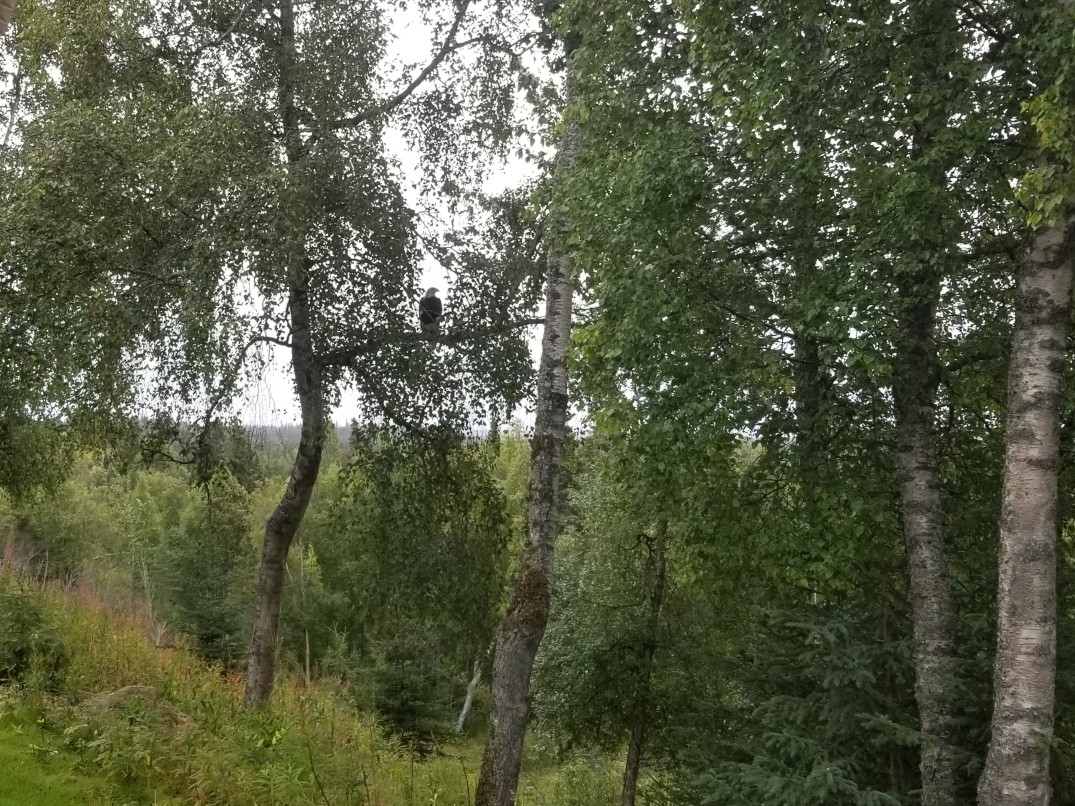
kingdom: Animalia
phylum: Chordata
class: Aves
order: Accipitriformes
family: Accipitridae
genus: Haliaeetus
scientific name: Haliaeetus leucocephalus
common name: Bald eagle
